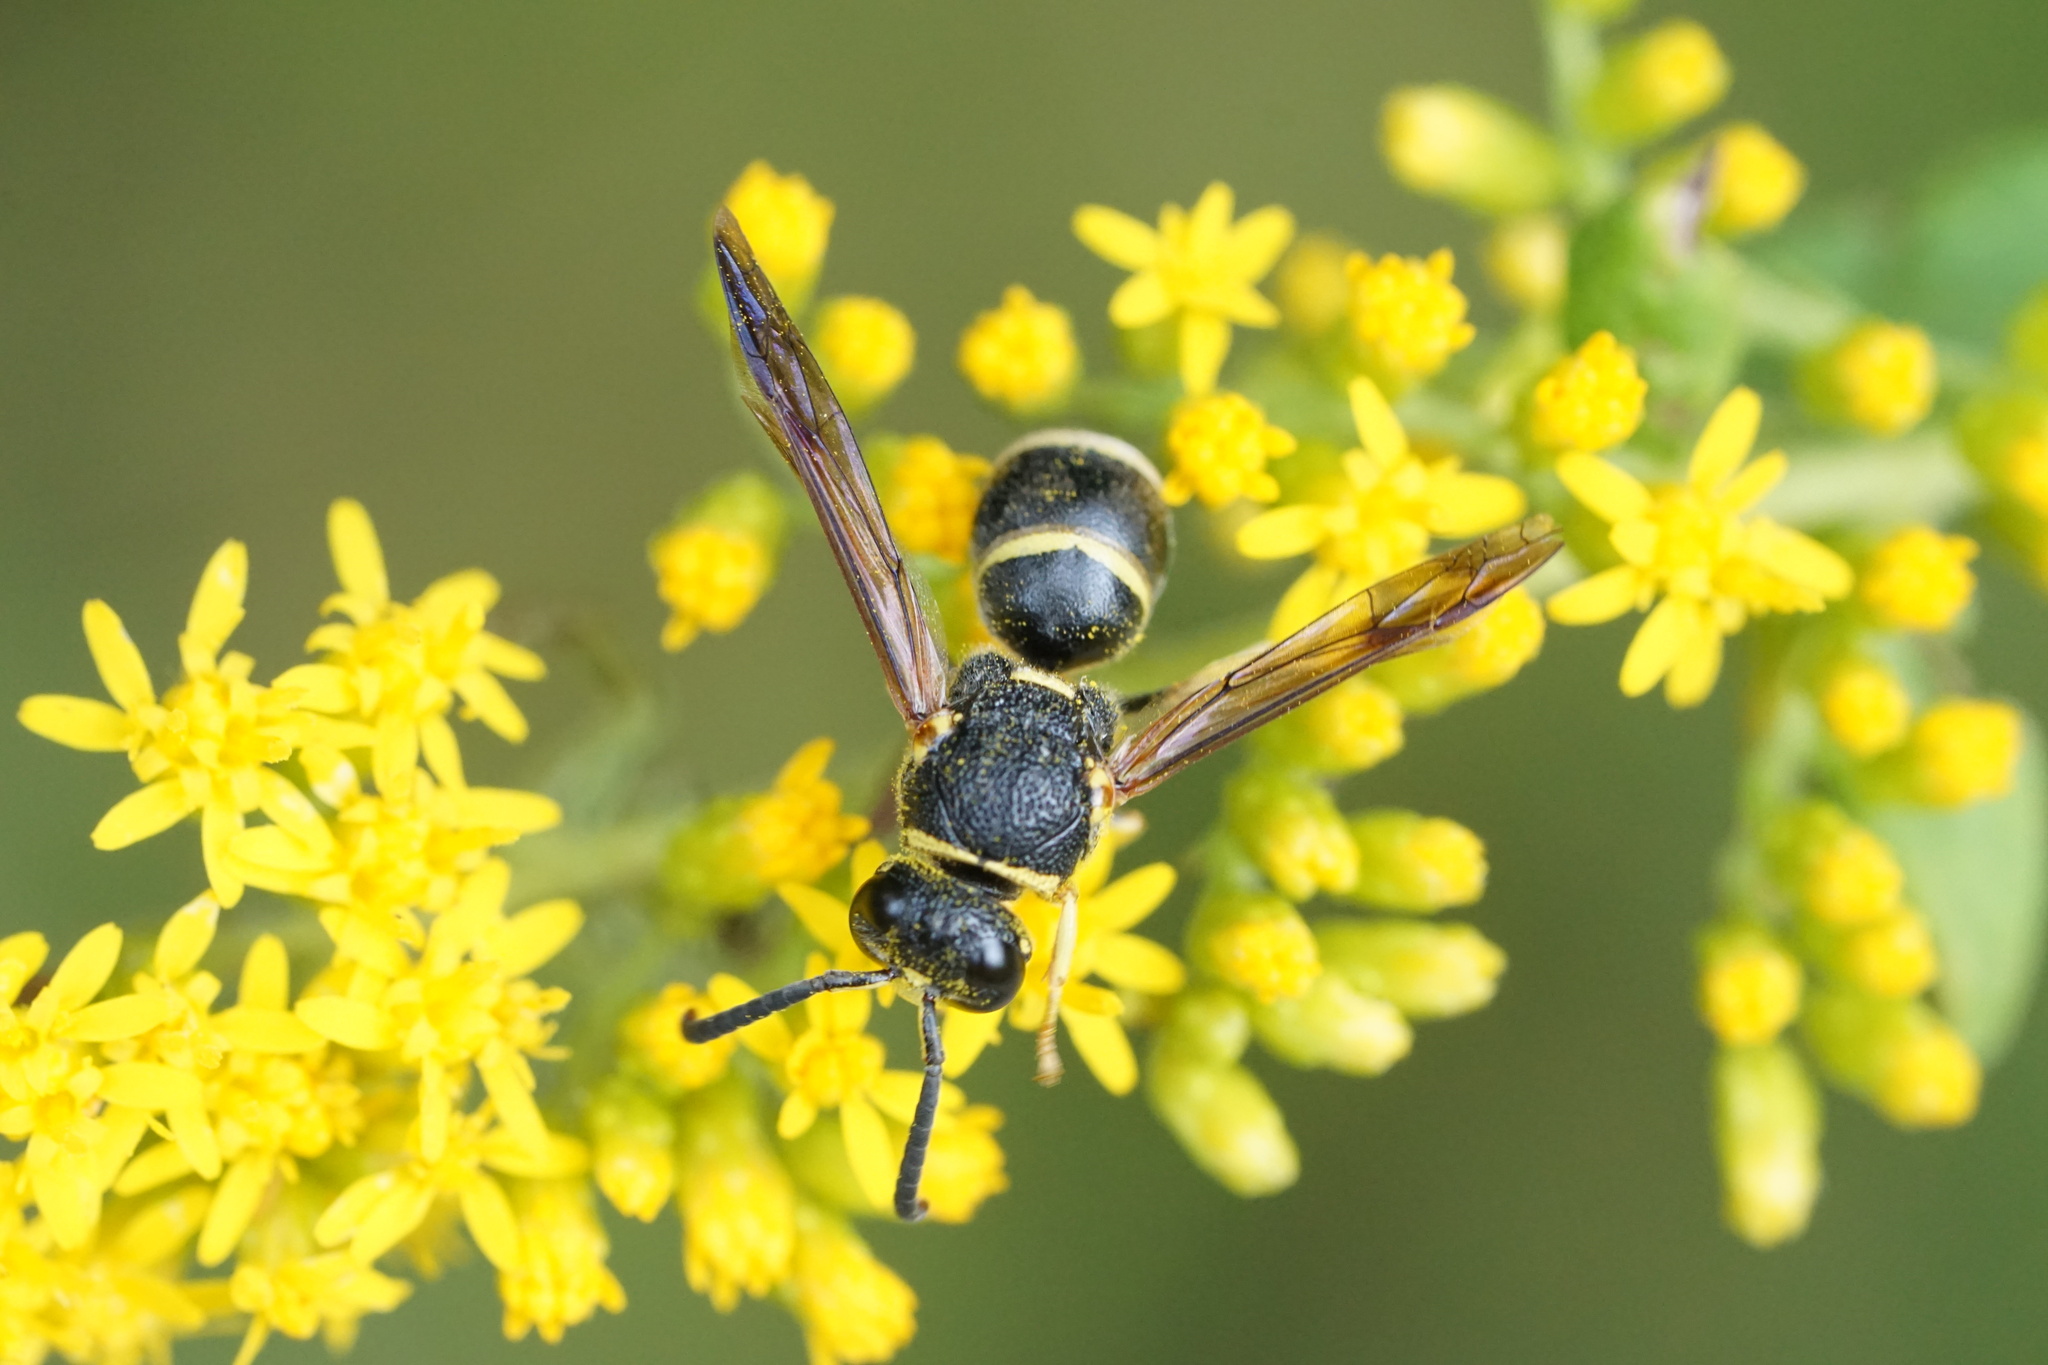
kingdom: Animalia
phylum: Arthropoda
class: Insecta
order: Hymenoptera
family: Eumenidae
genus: Euodynerus
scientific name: Euodynerus foraminatus
